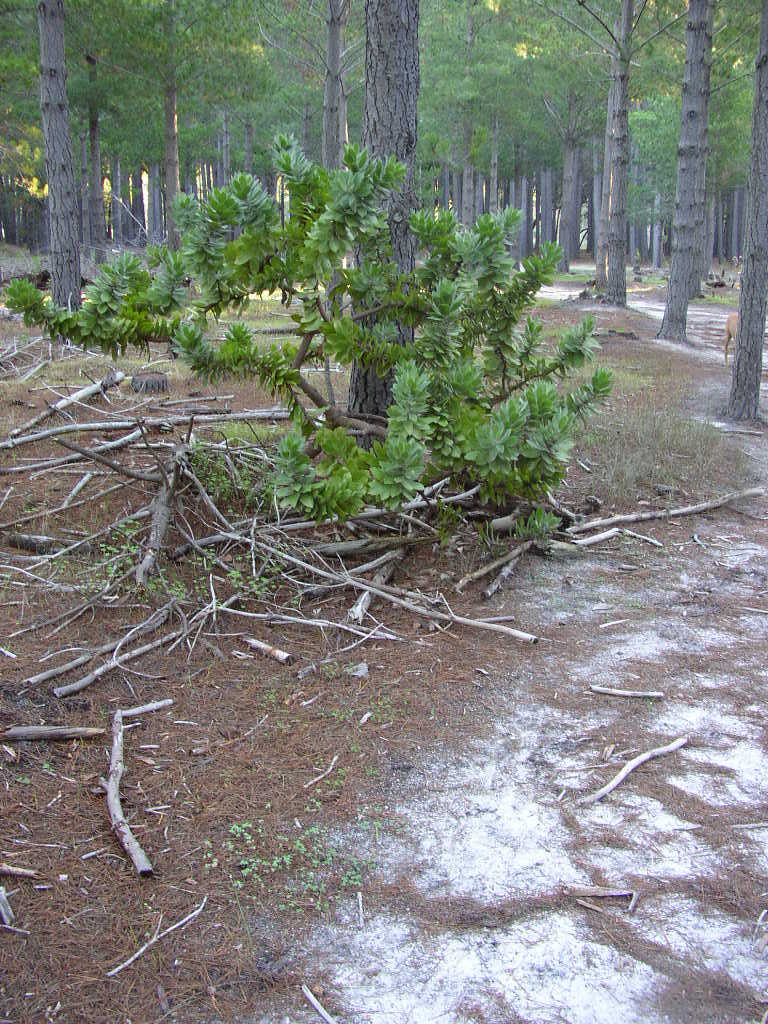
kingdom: Plantae
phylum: Tracheophyta
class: Magnoliopsida
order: Proteales
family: Proteaceae
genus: Leucospermum
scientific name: Leucospermum conocarpodendron
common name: Tree pincushion
